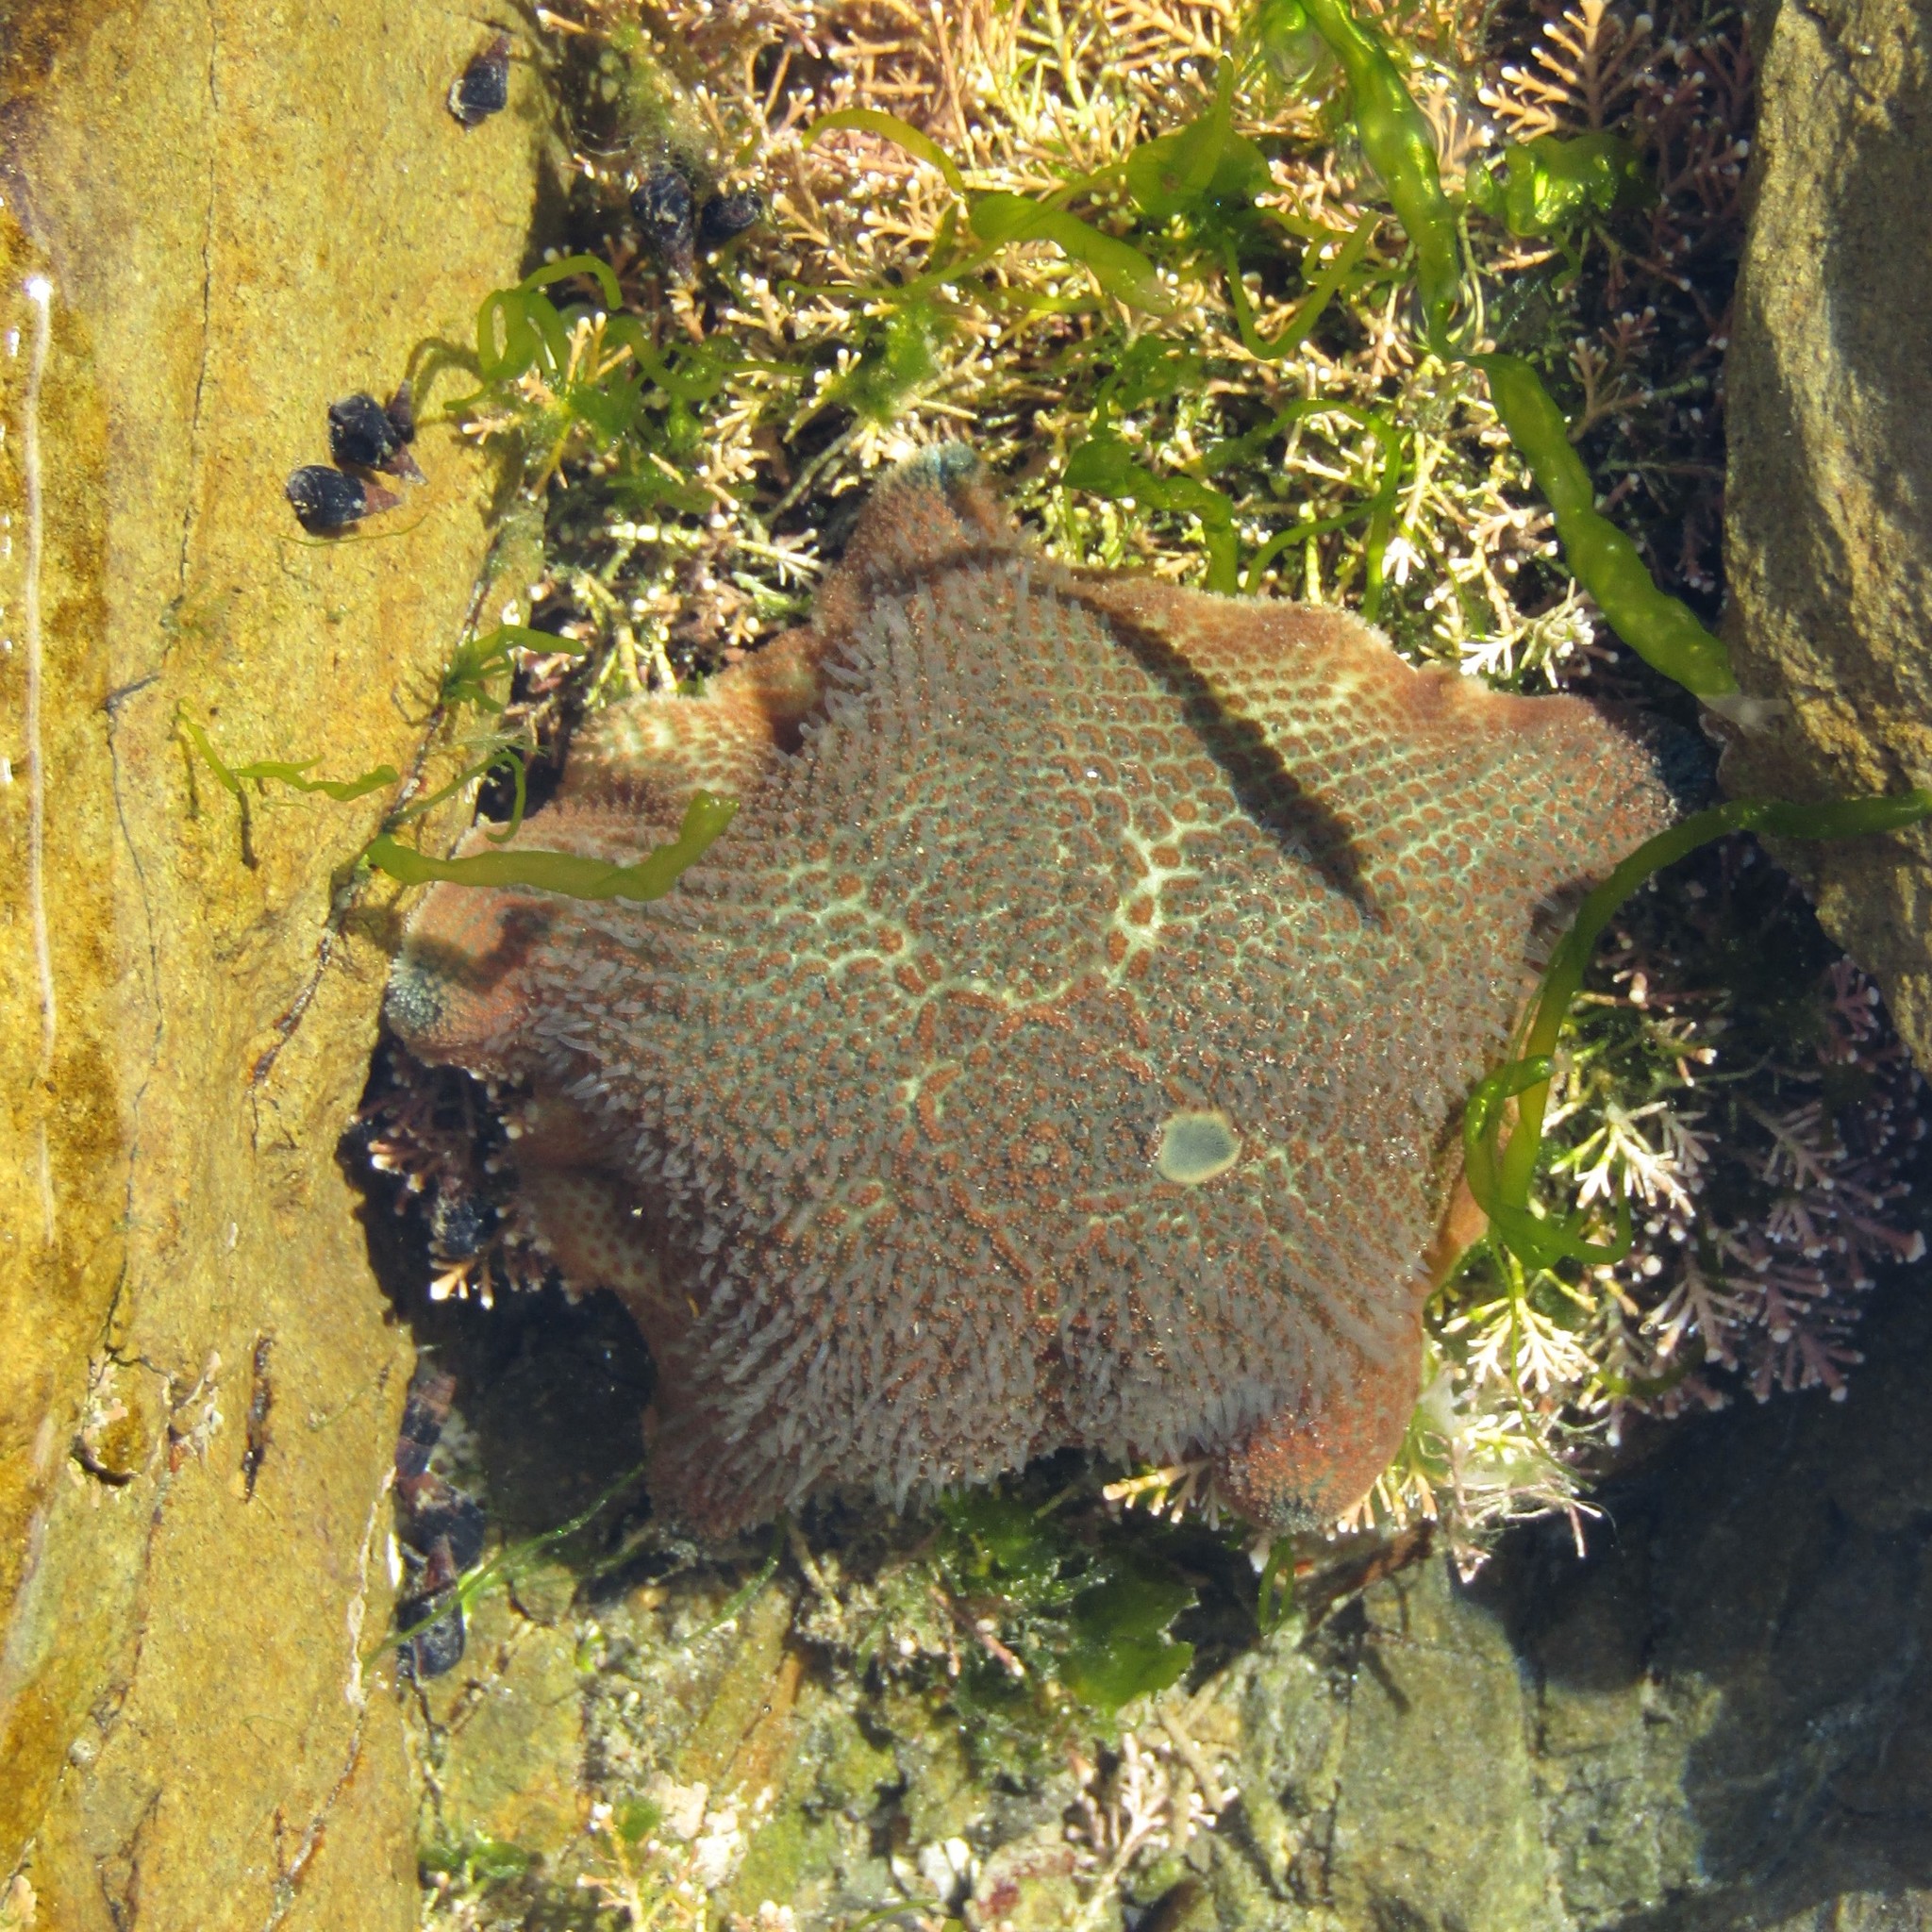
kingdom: Animalia
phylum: Echinodermata
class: Asteroidea
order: Valvatida
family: Asterinidae
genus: Patiriella
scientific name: Patiriella regularis
